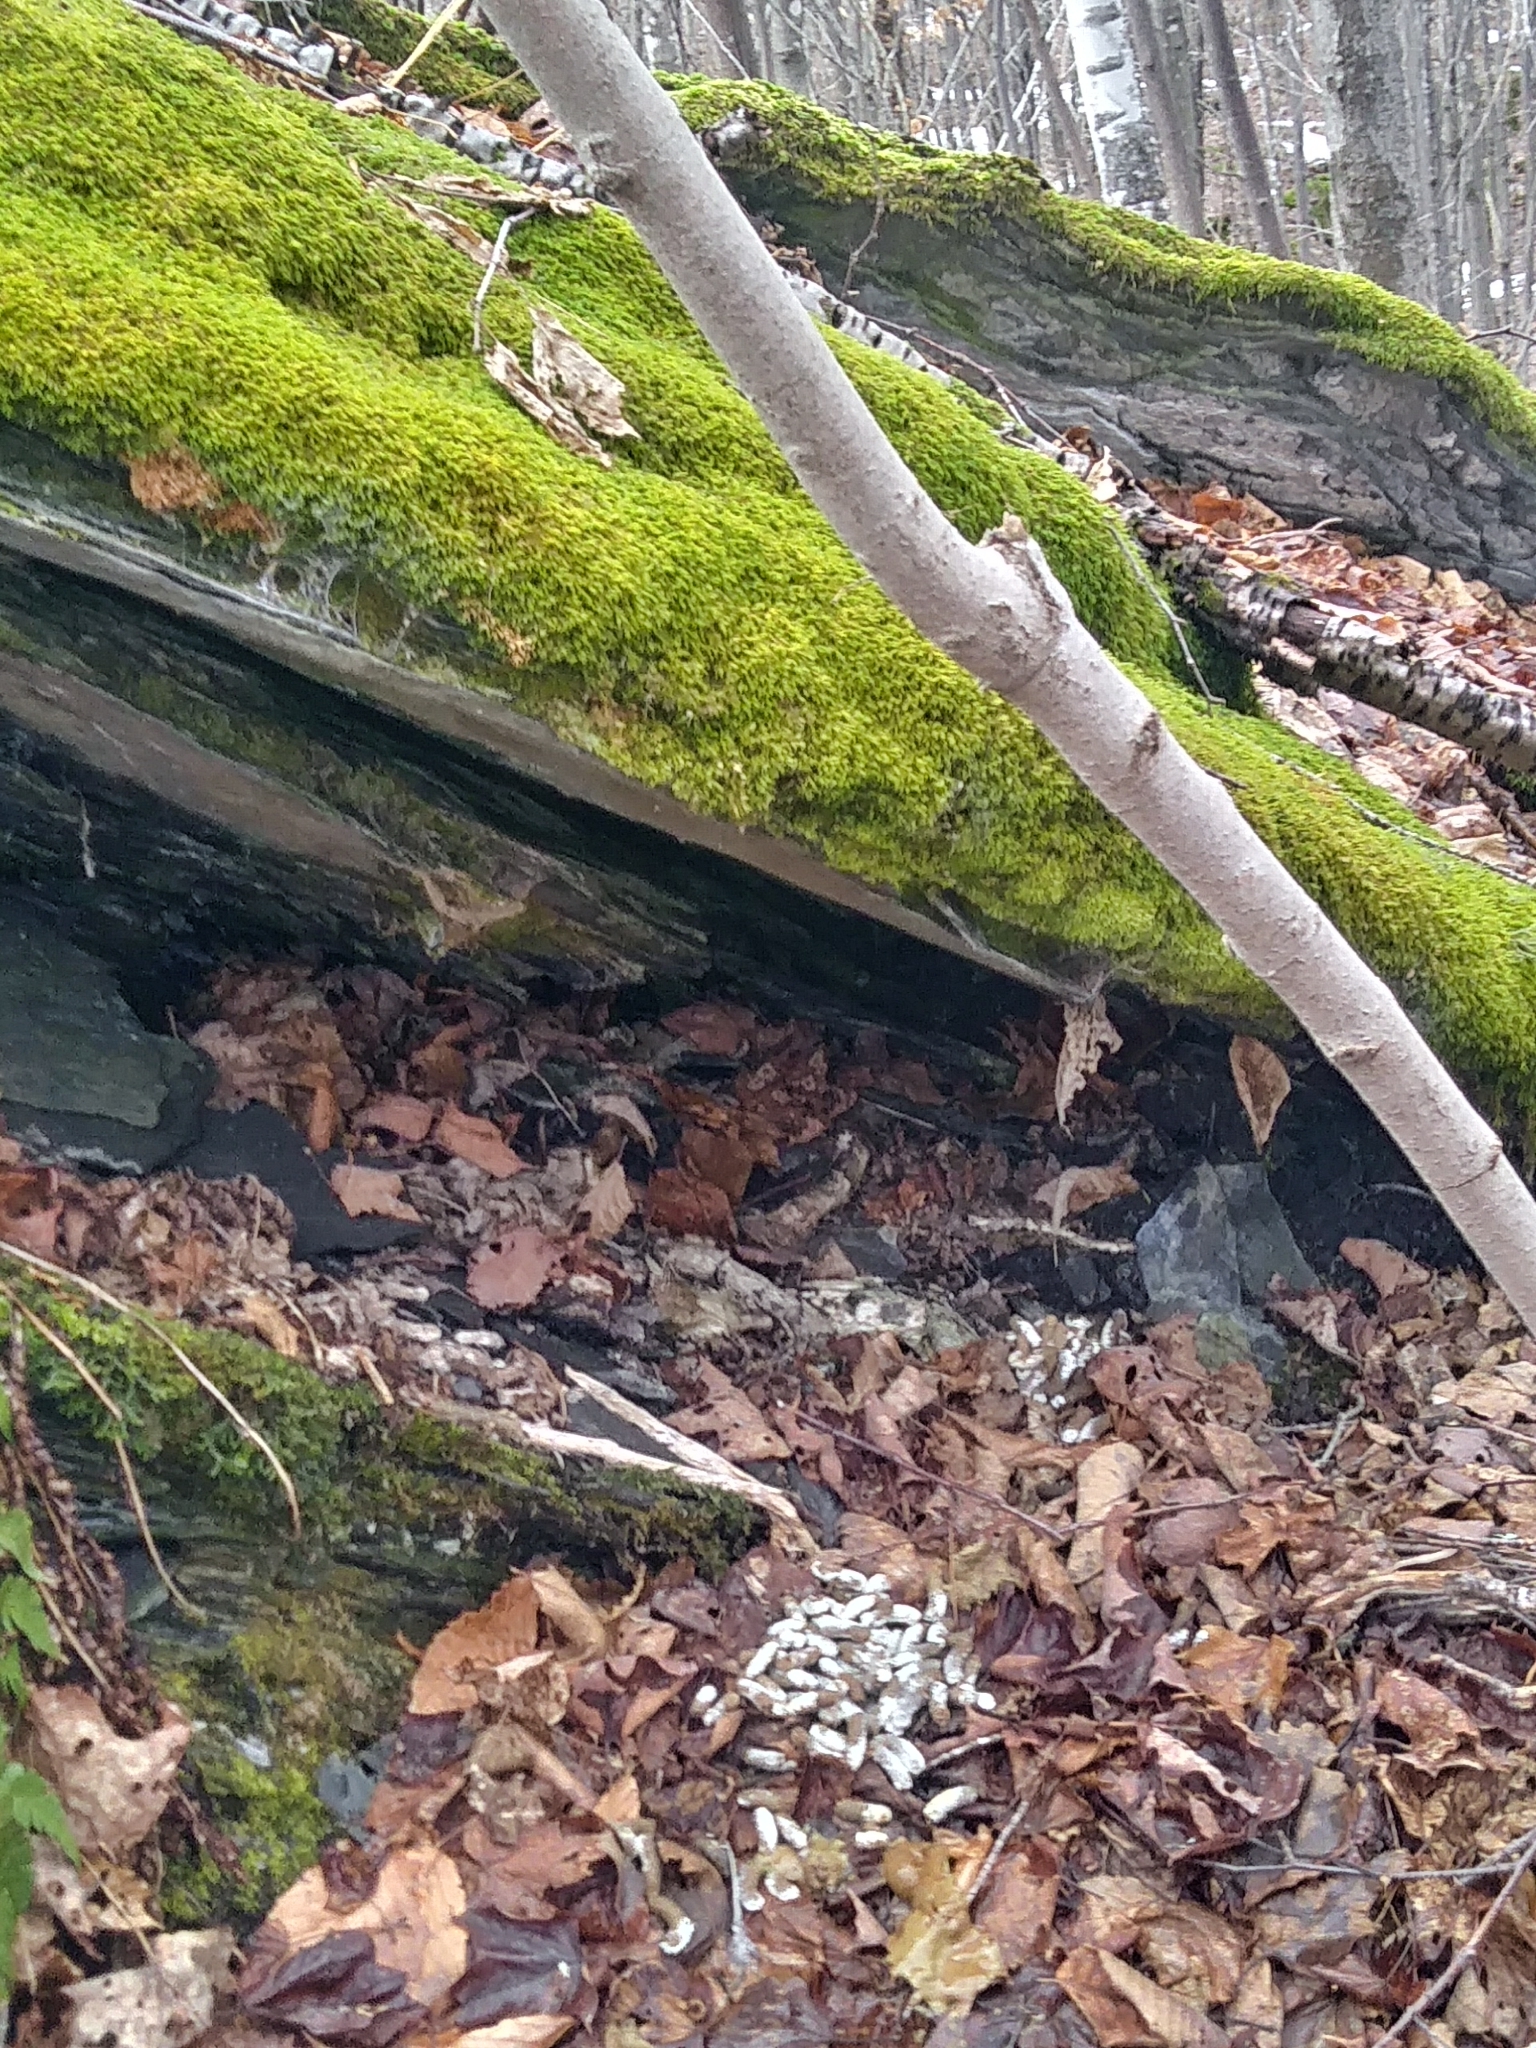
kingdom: Animalia
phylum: Chordata
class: Aves
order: Galliformes
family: Phasianidae
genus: Bonasa
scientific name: Bonasa umbellus
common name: Ruffed grouse
